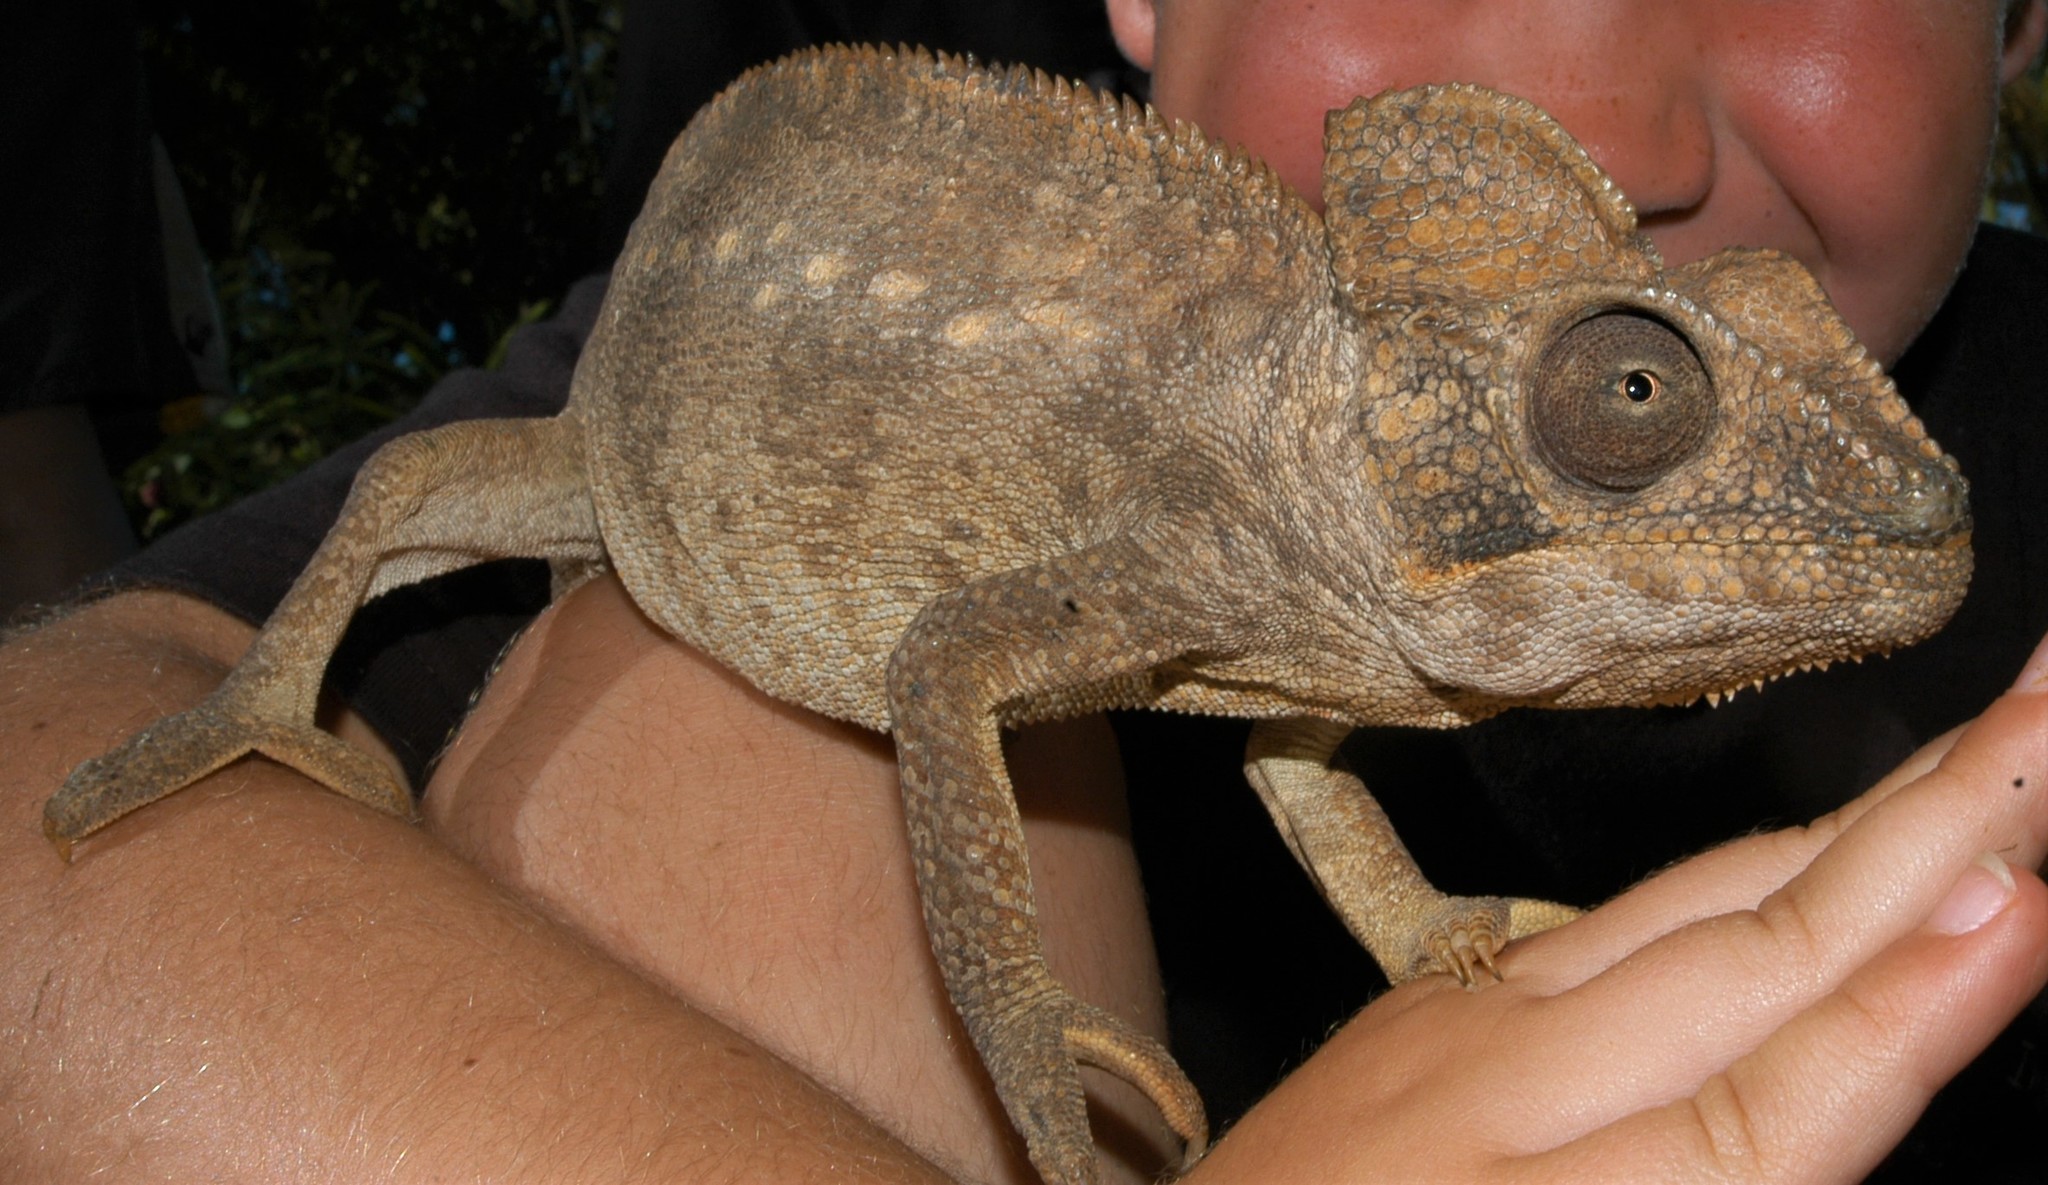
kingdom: Animalia
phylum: Chordata
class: Squamata
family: Chamaeleonidae
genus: Furcifer
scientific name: Furcifer oustaleti
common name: Oustalet's chameleon
